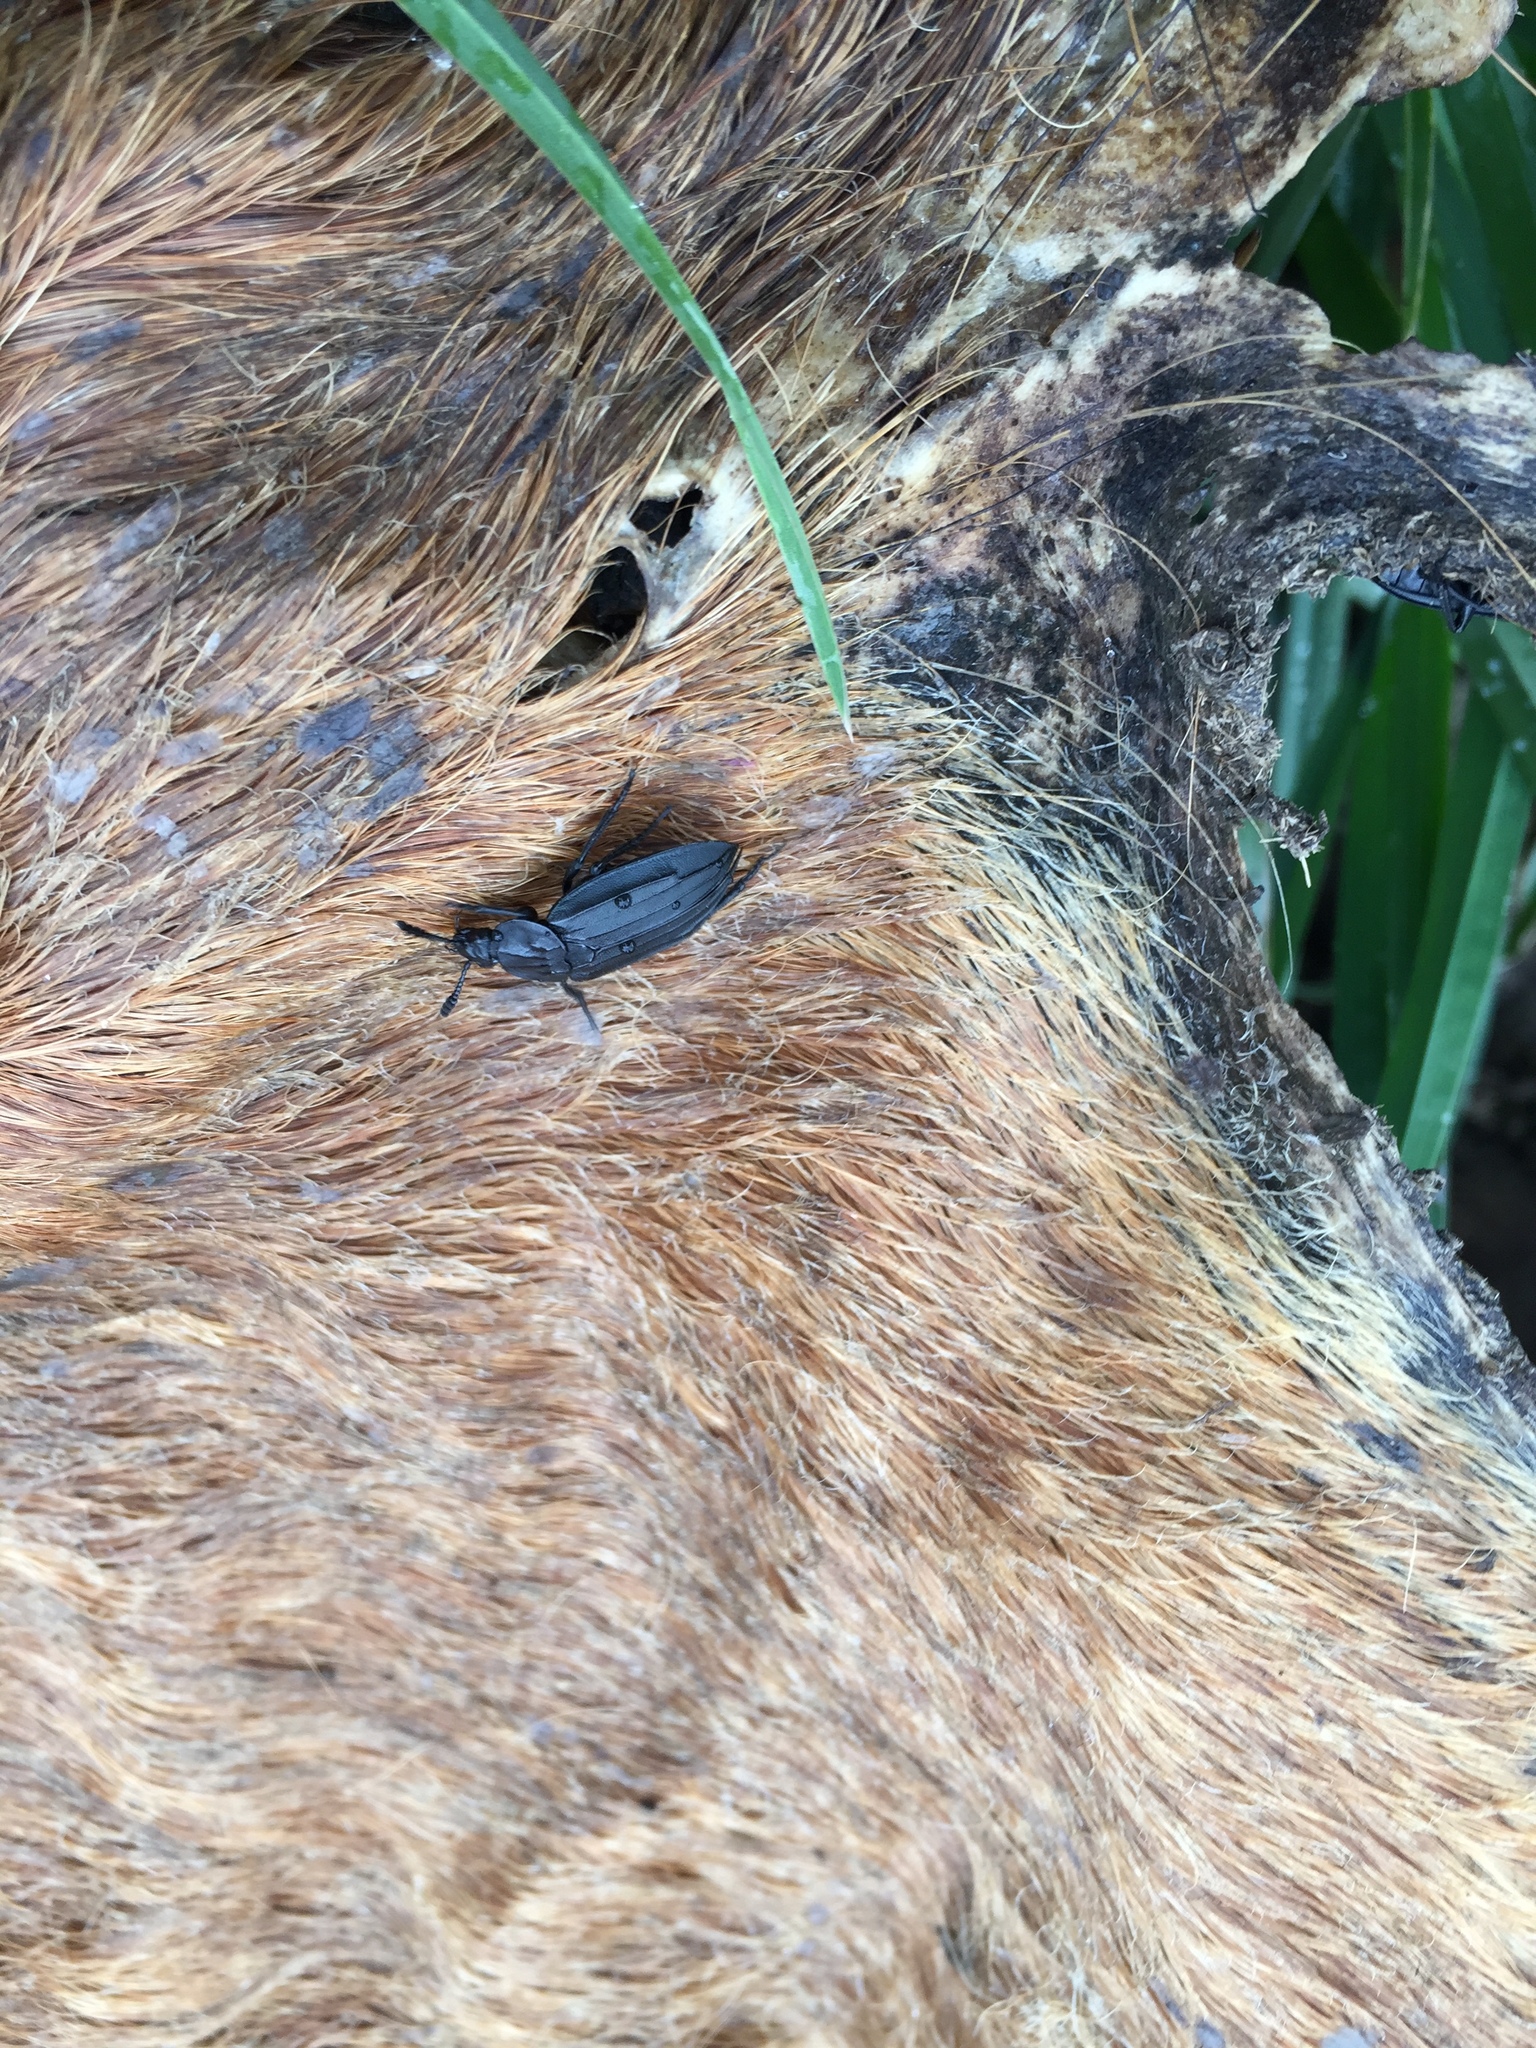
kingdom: Animalia
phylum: Arthropoda
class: Insecta
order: Coleoptera
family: Staphylinidae
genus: Oxelytrum
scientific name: Oxelytrum anticola
